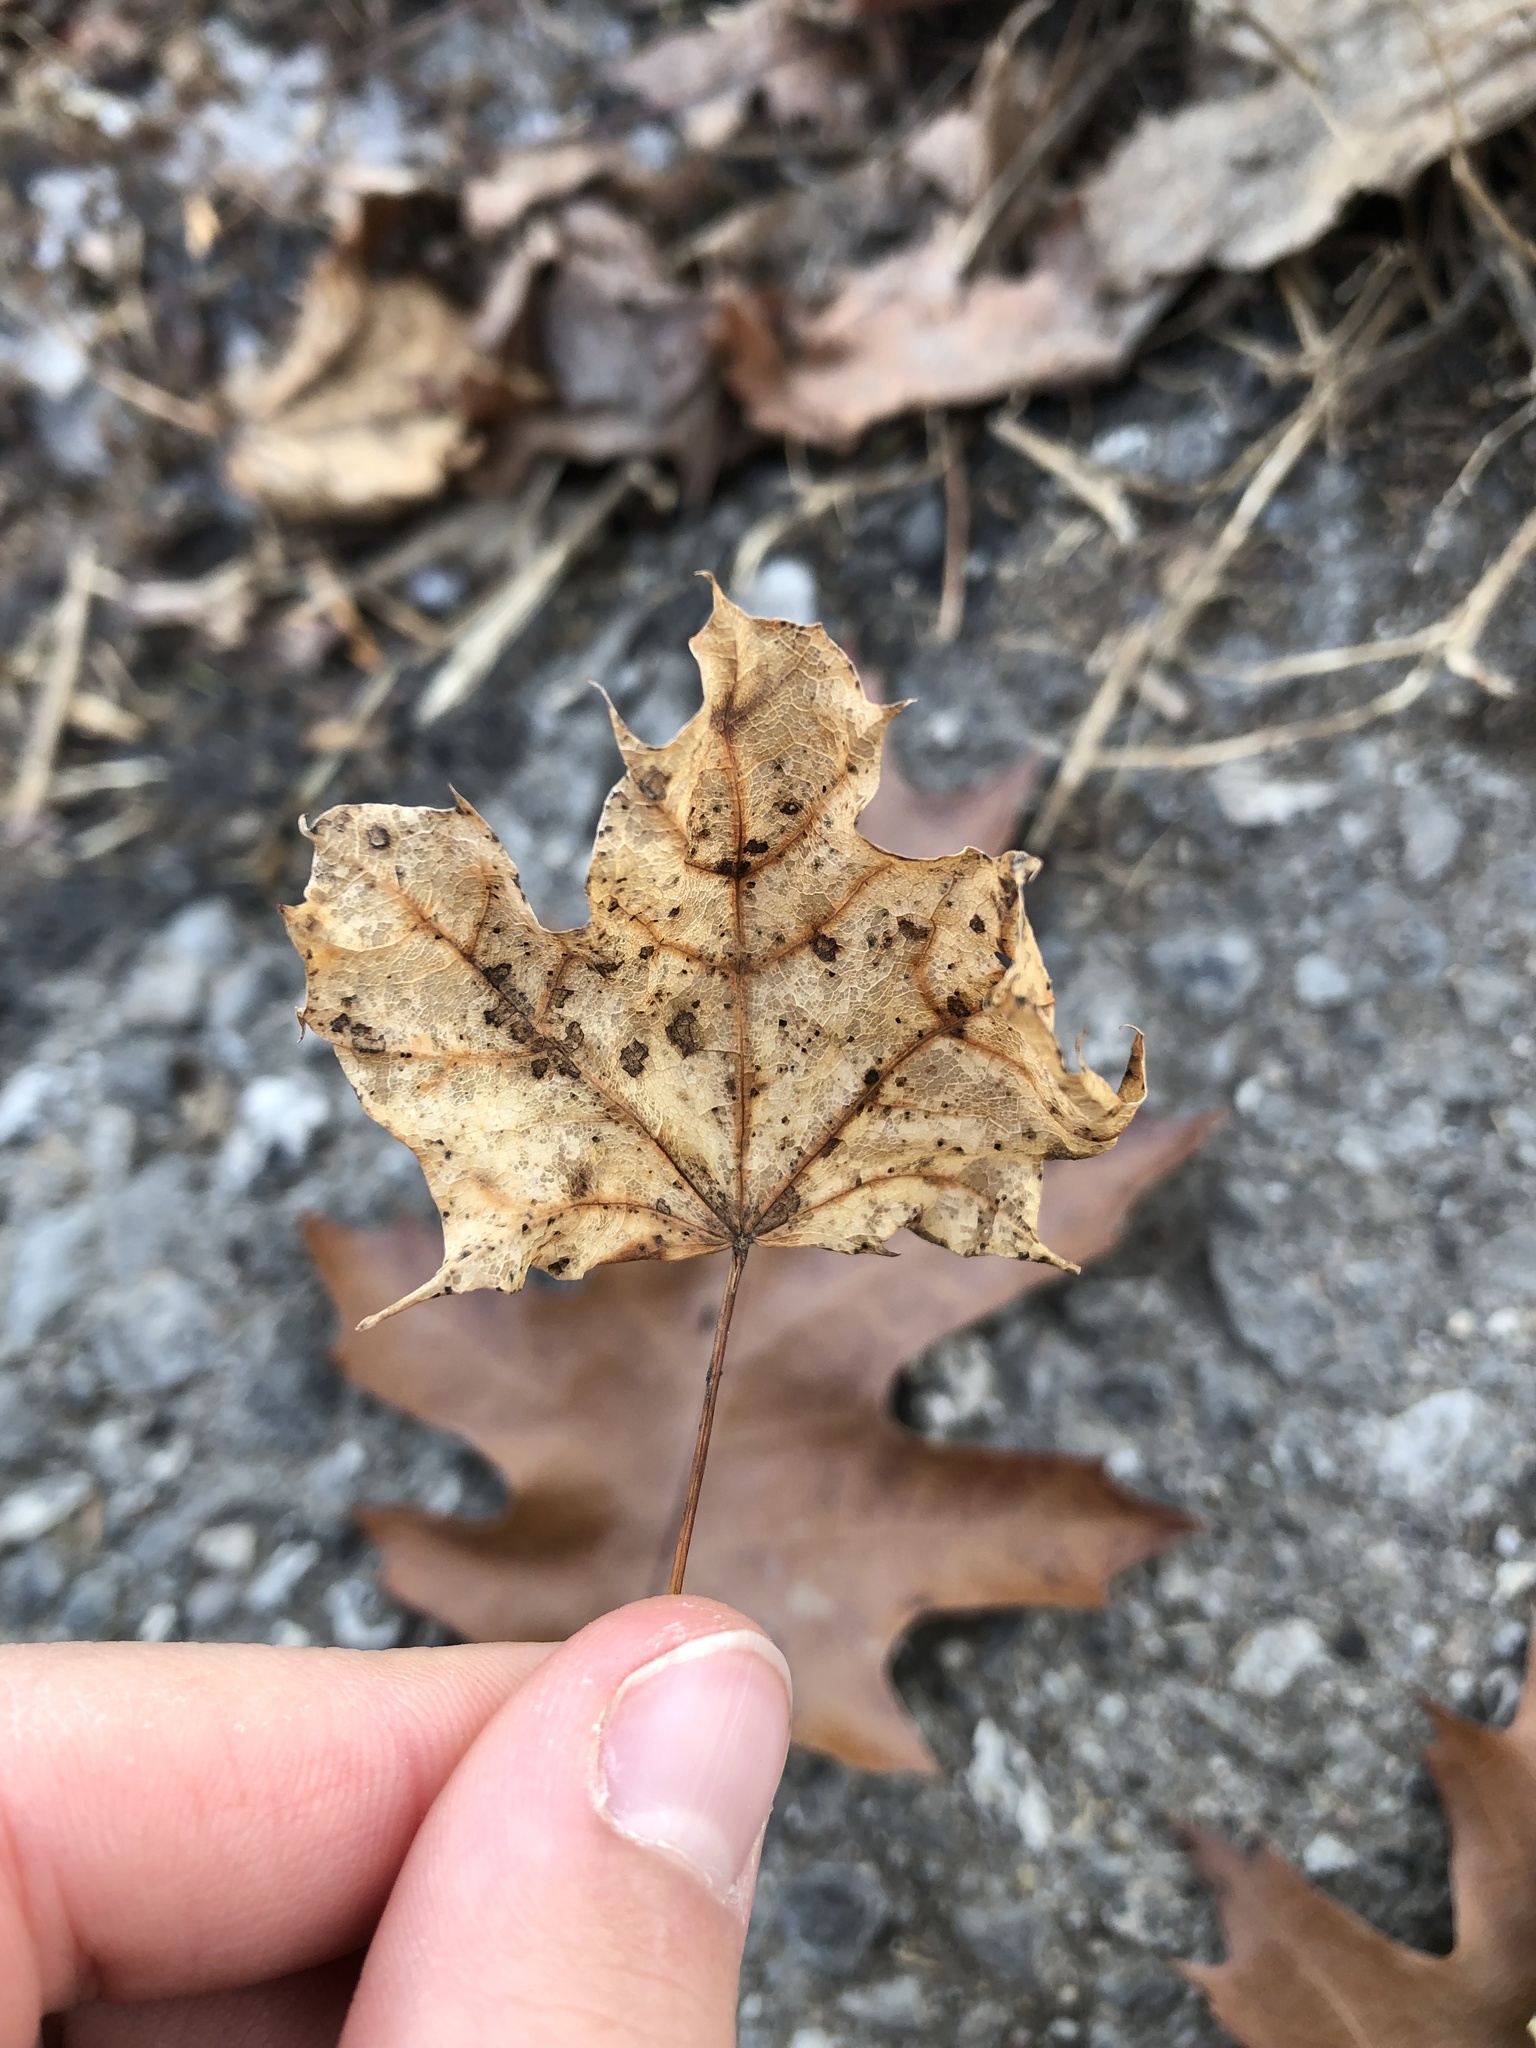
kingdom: Plantae
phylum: Tracheophyta
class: Magnoliopsida
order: Sapindales
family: Sapindaceae
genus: Acer
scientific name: Acer saccharum
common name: Sugar maple
